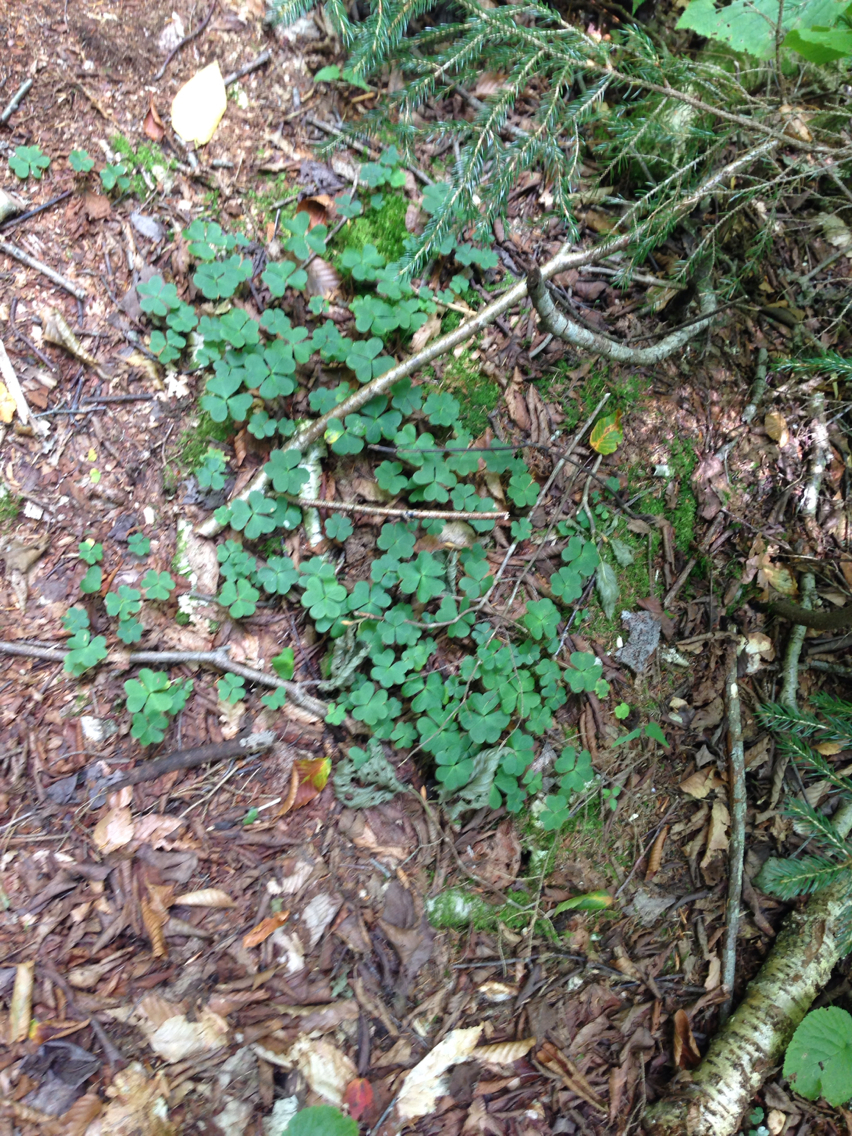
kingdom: Plantae
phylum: Tracheophyta
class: Magnoliopsida
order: Oxalidales
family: Oxalidaceae
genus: Oxalis
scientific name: Oxalis montana
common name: American wood-sorrel
